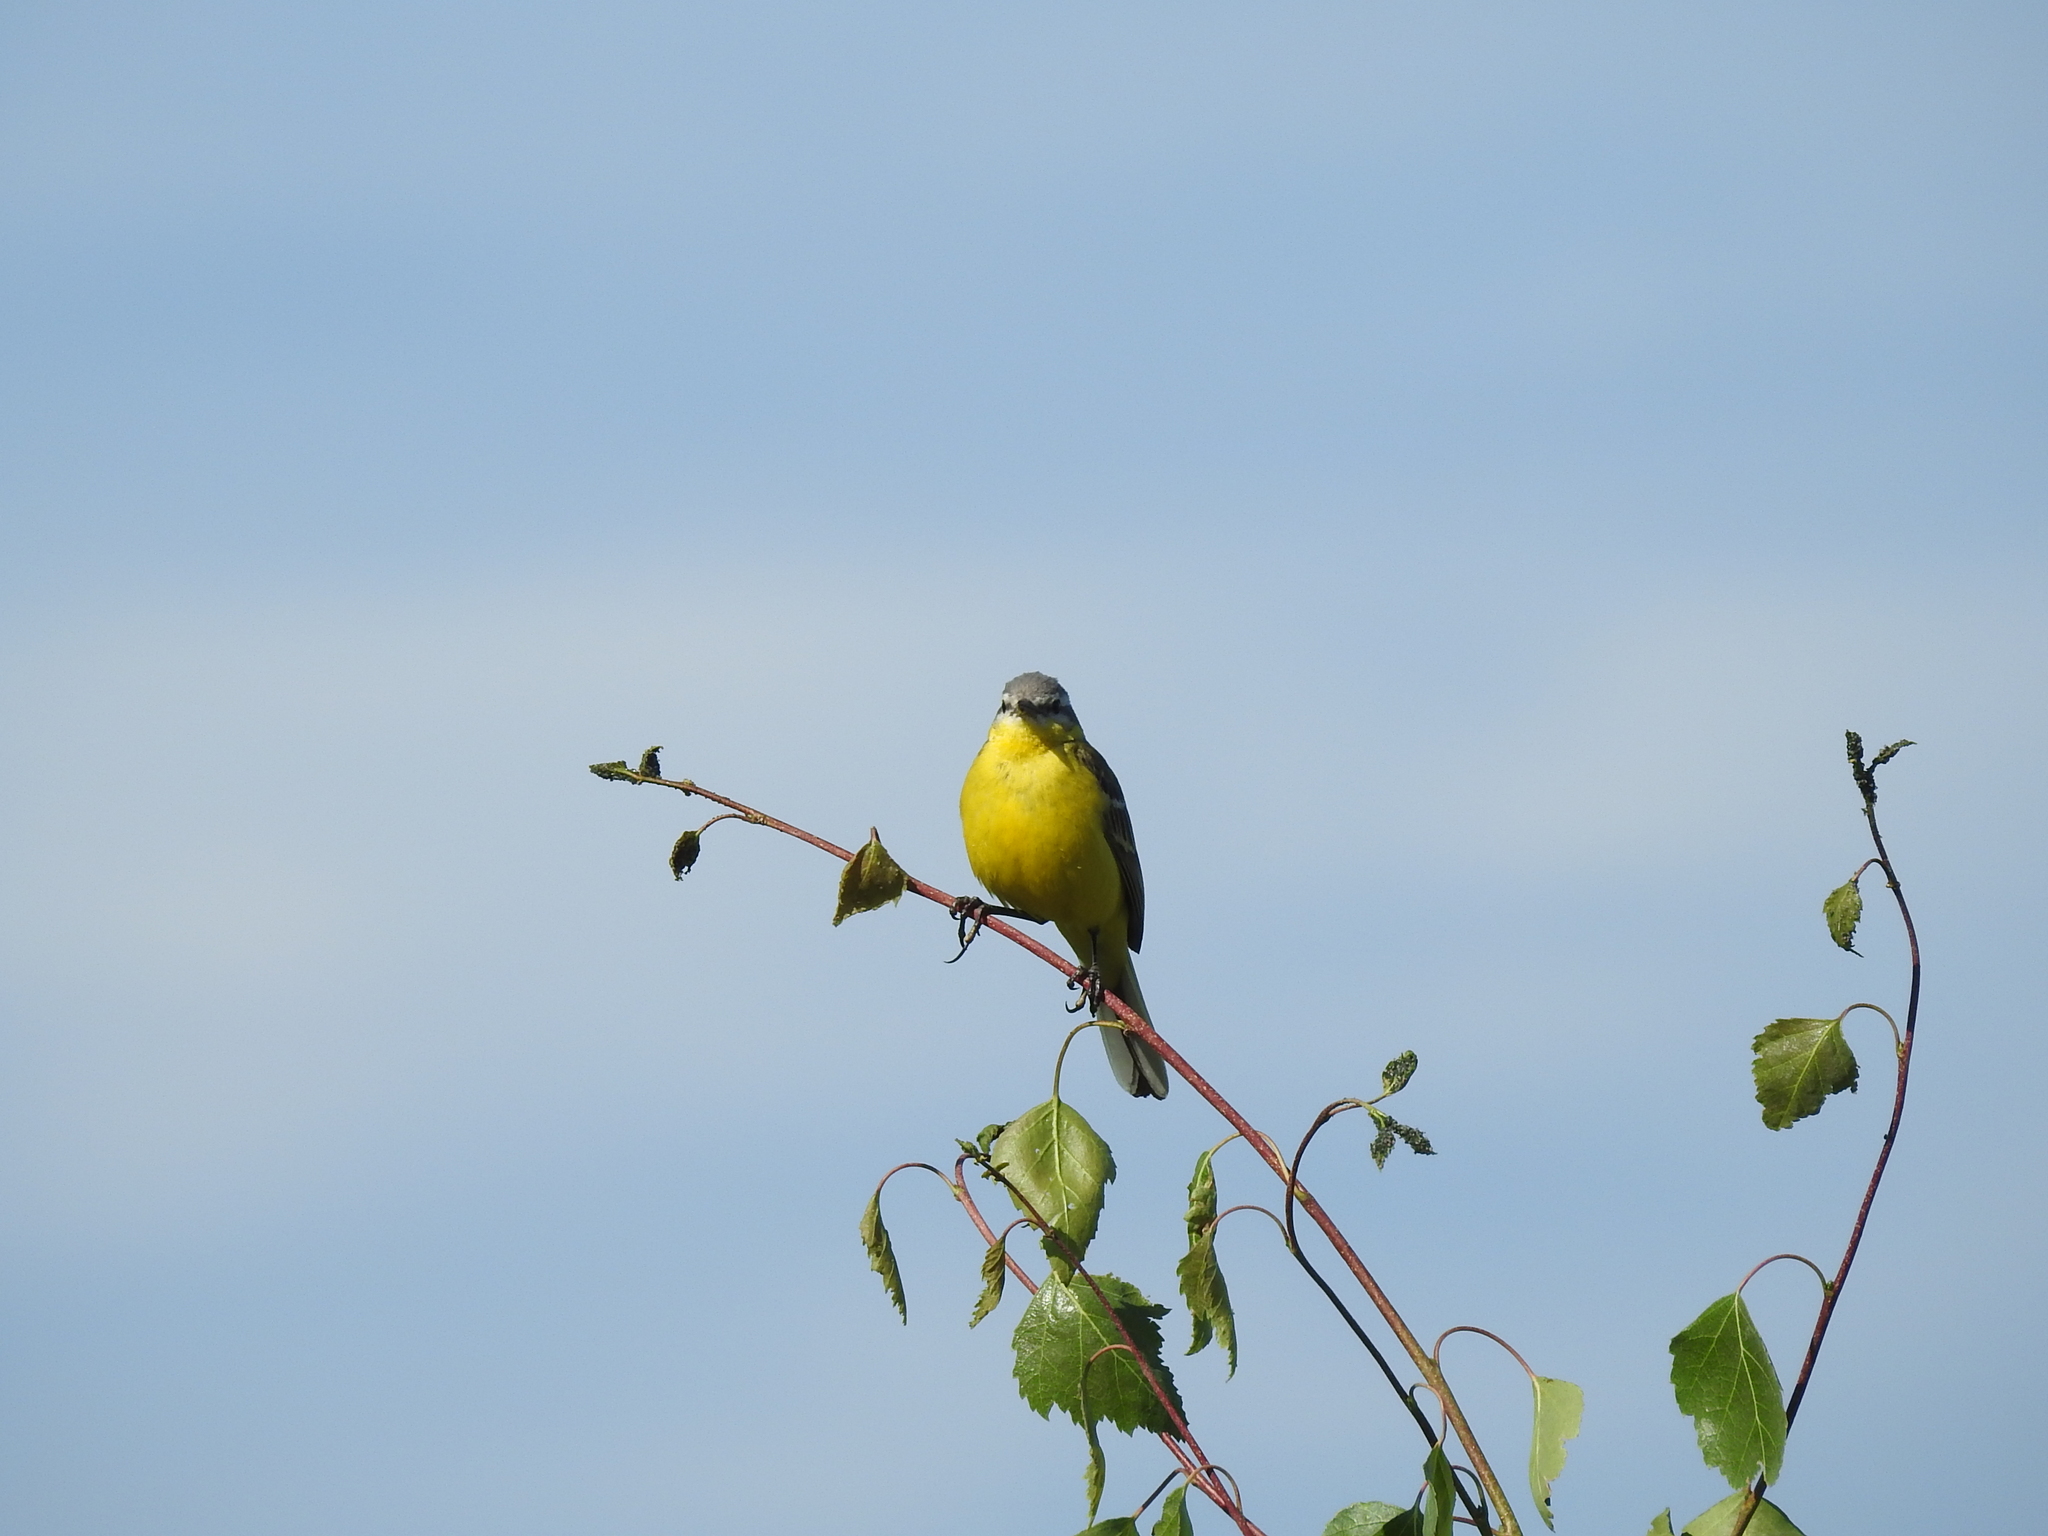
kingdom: Animalia
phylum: Chordata
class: Aves
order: Passeriformes
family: Motacillidae
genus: Motacilla
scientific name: Motacilla flava
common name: Western yellow wagtail
